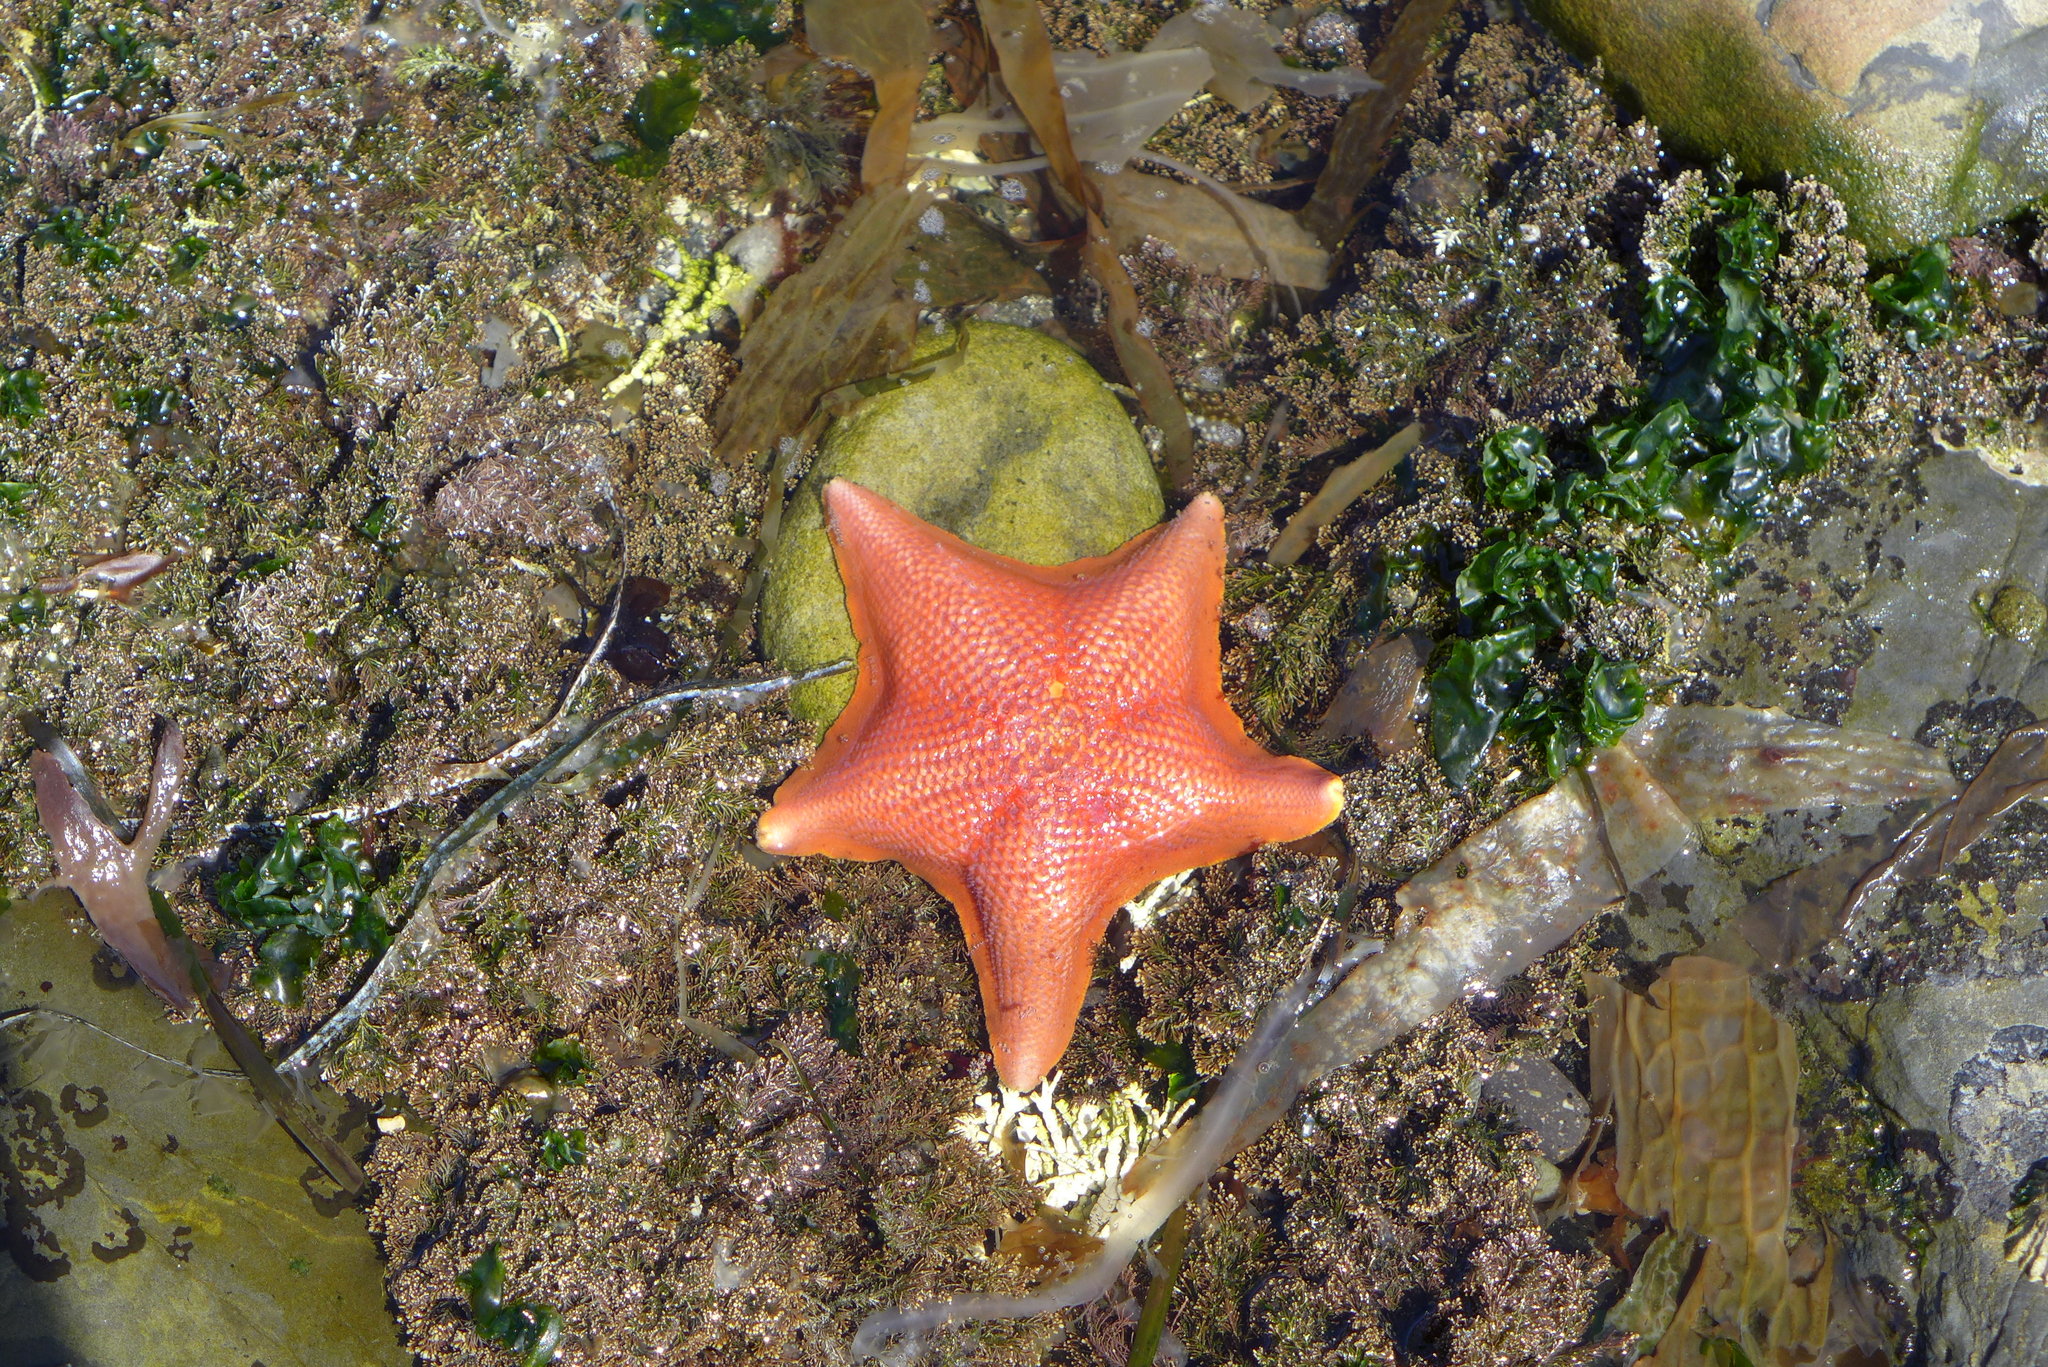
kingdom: Animalia
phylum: Echinodermata
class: Asteroidea
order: Valvatida
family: Asterinidae
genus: Patiria
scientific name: Patiria miniata
